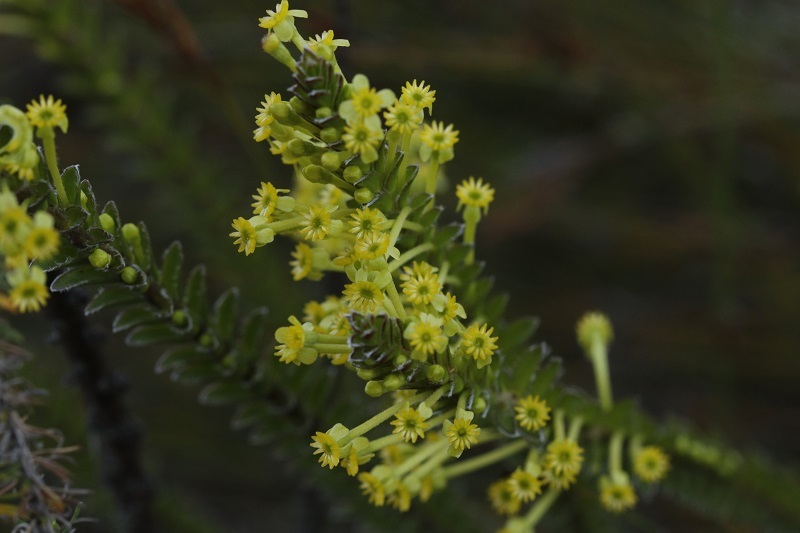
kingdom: Plantae
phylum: Tracheophyta
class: Magnoliopsida
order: Malvales
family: Thymelaeaceae
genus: Struthiola
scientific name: Struthiola argentea
